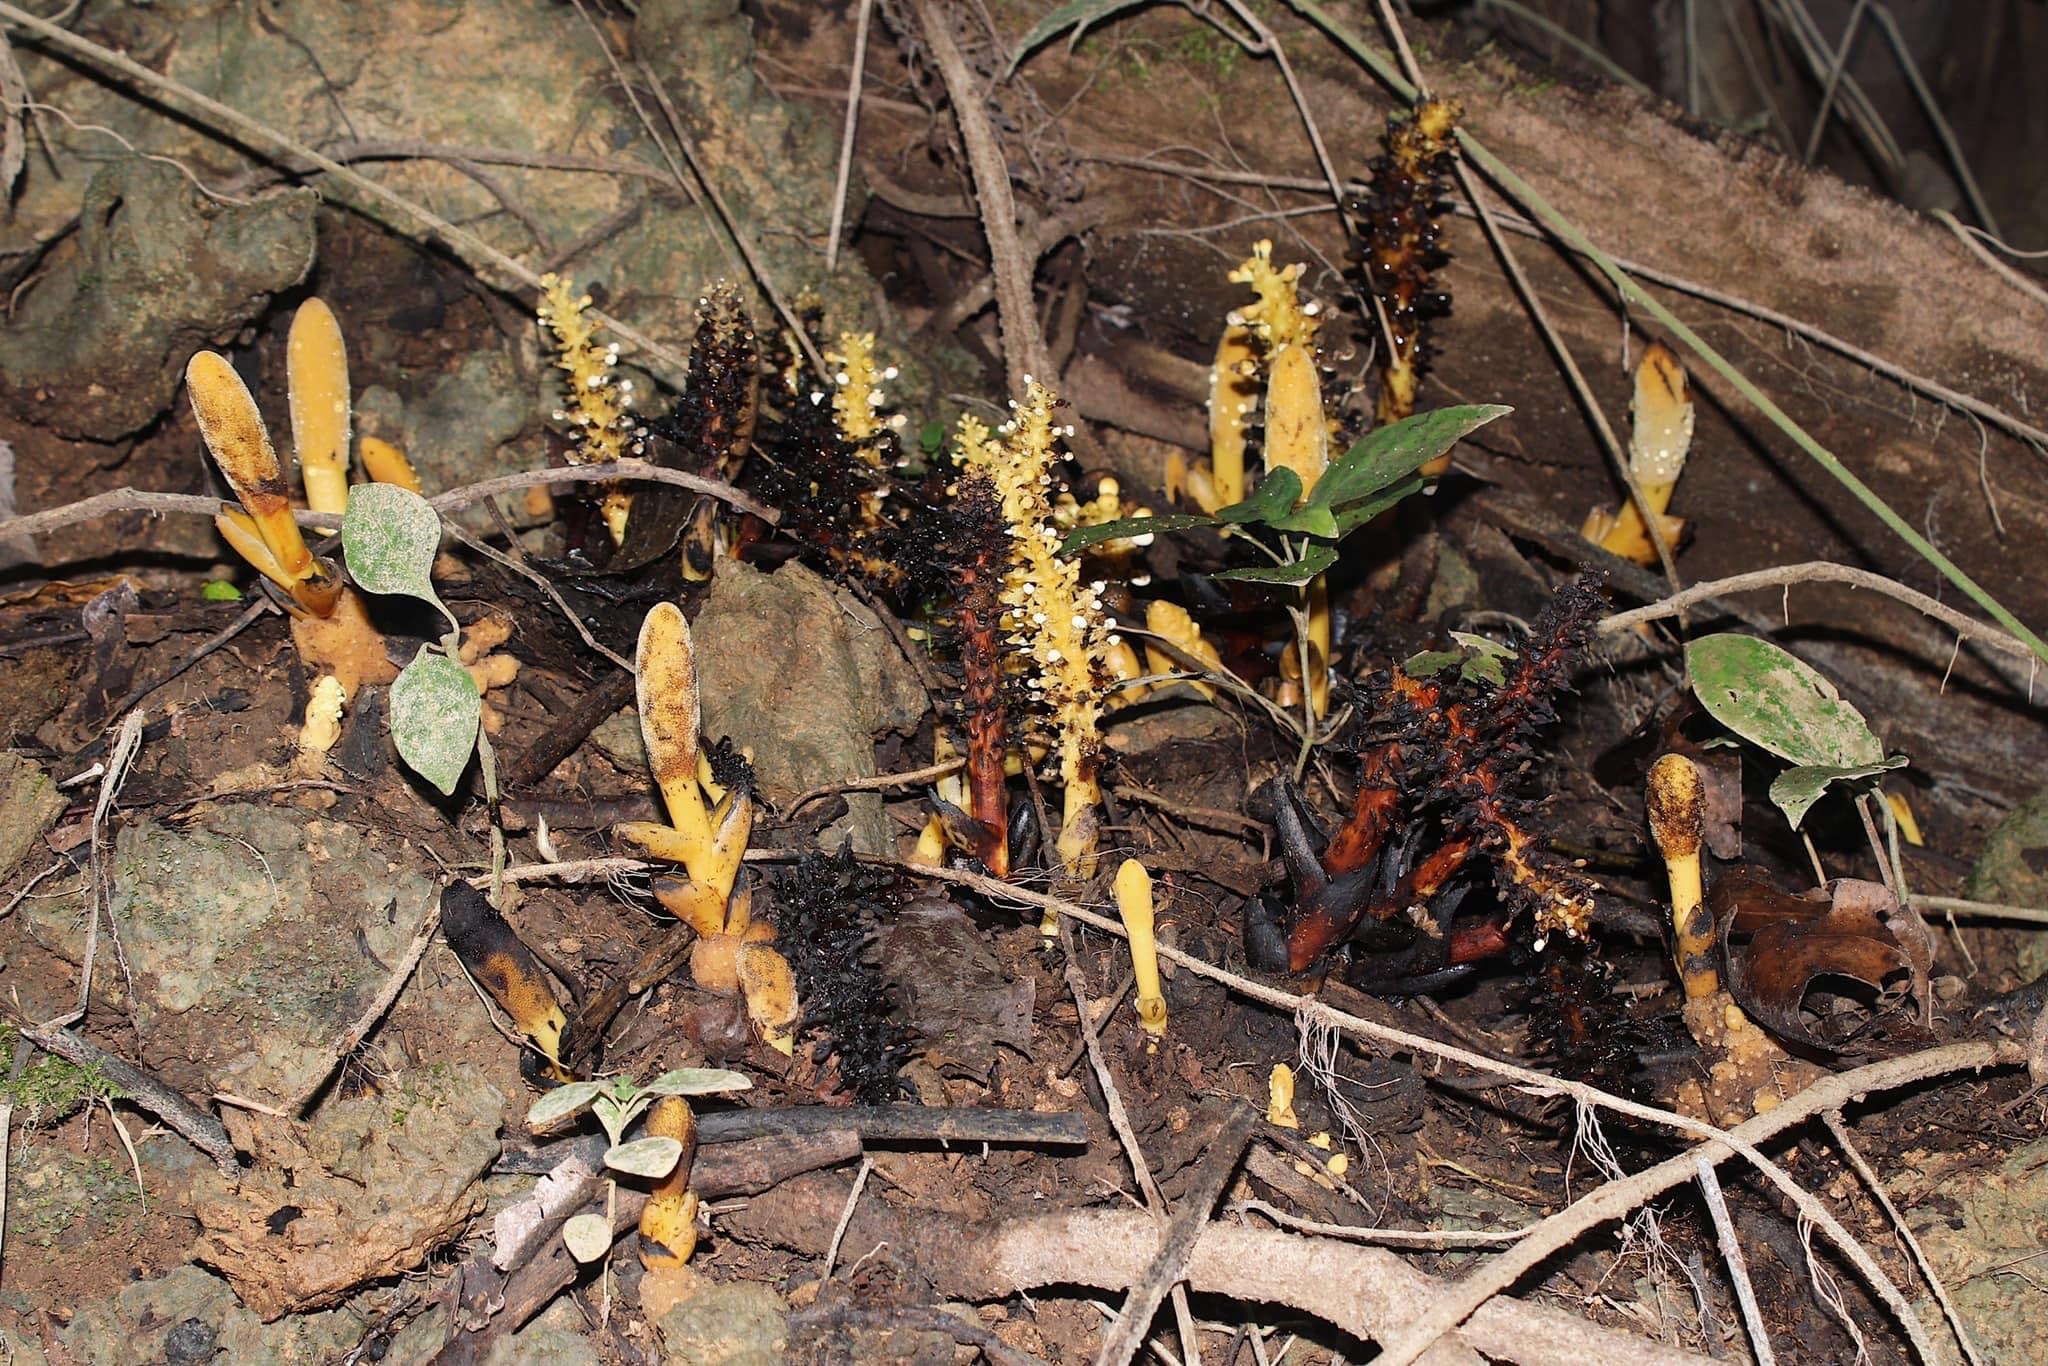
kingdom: Plantae
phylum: Tracheophyta
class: Magnoliopsida
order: Santalales
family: Balanophoraceae
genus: Balanophora
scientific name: Balanophora latisepala
